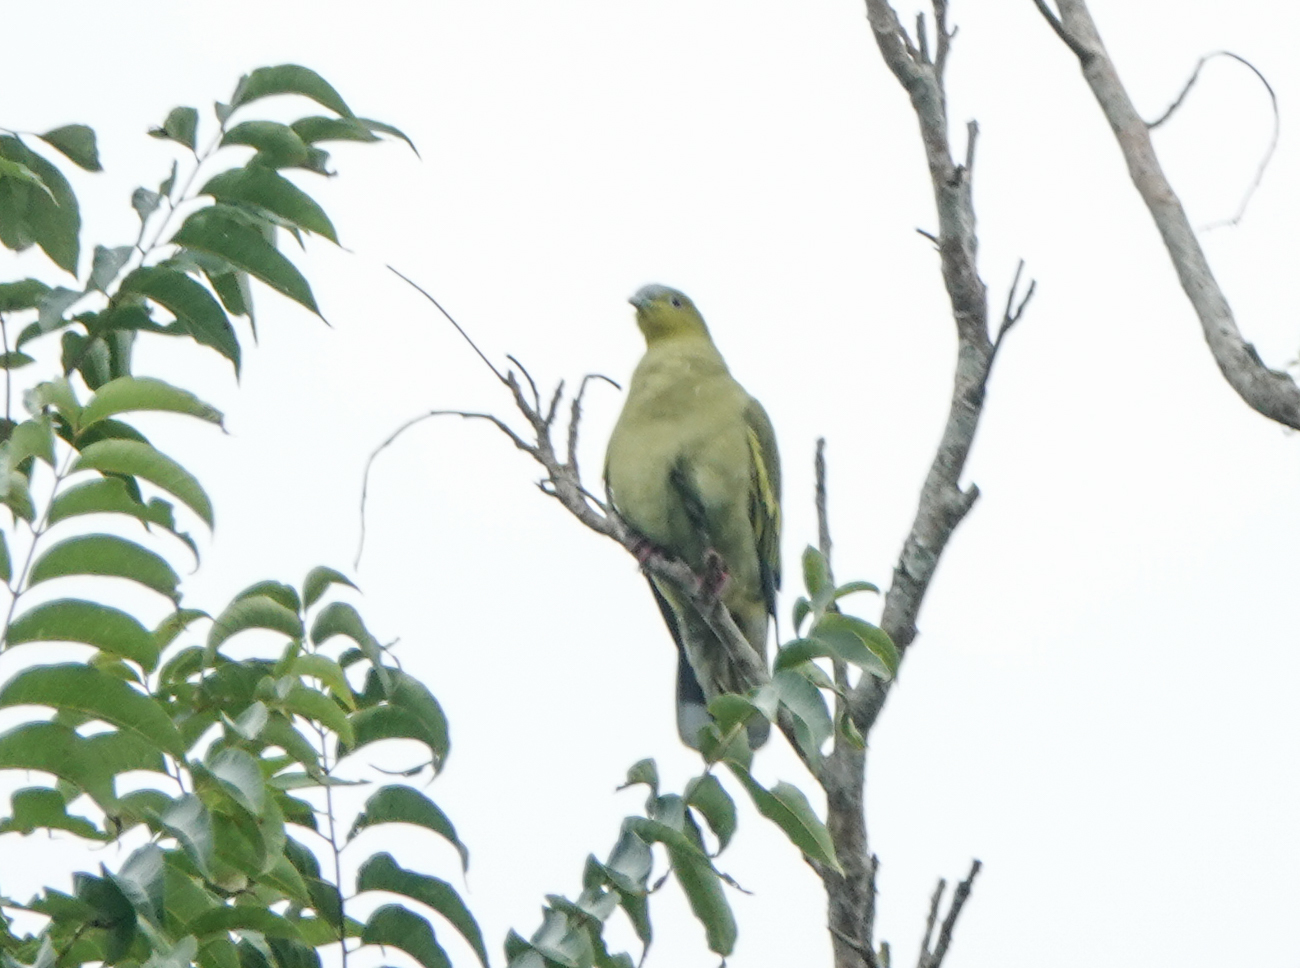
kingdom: Animalia
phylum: Chordata
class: Aves
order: Columbiformes
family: Columbidae
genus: Treron
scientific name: Treron phayrei
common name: Ashy-headed green pigeon
